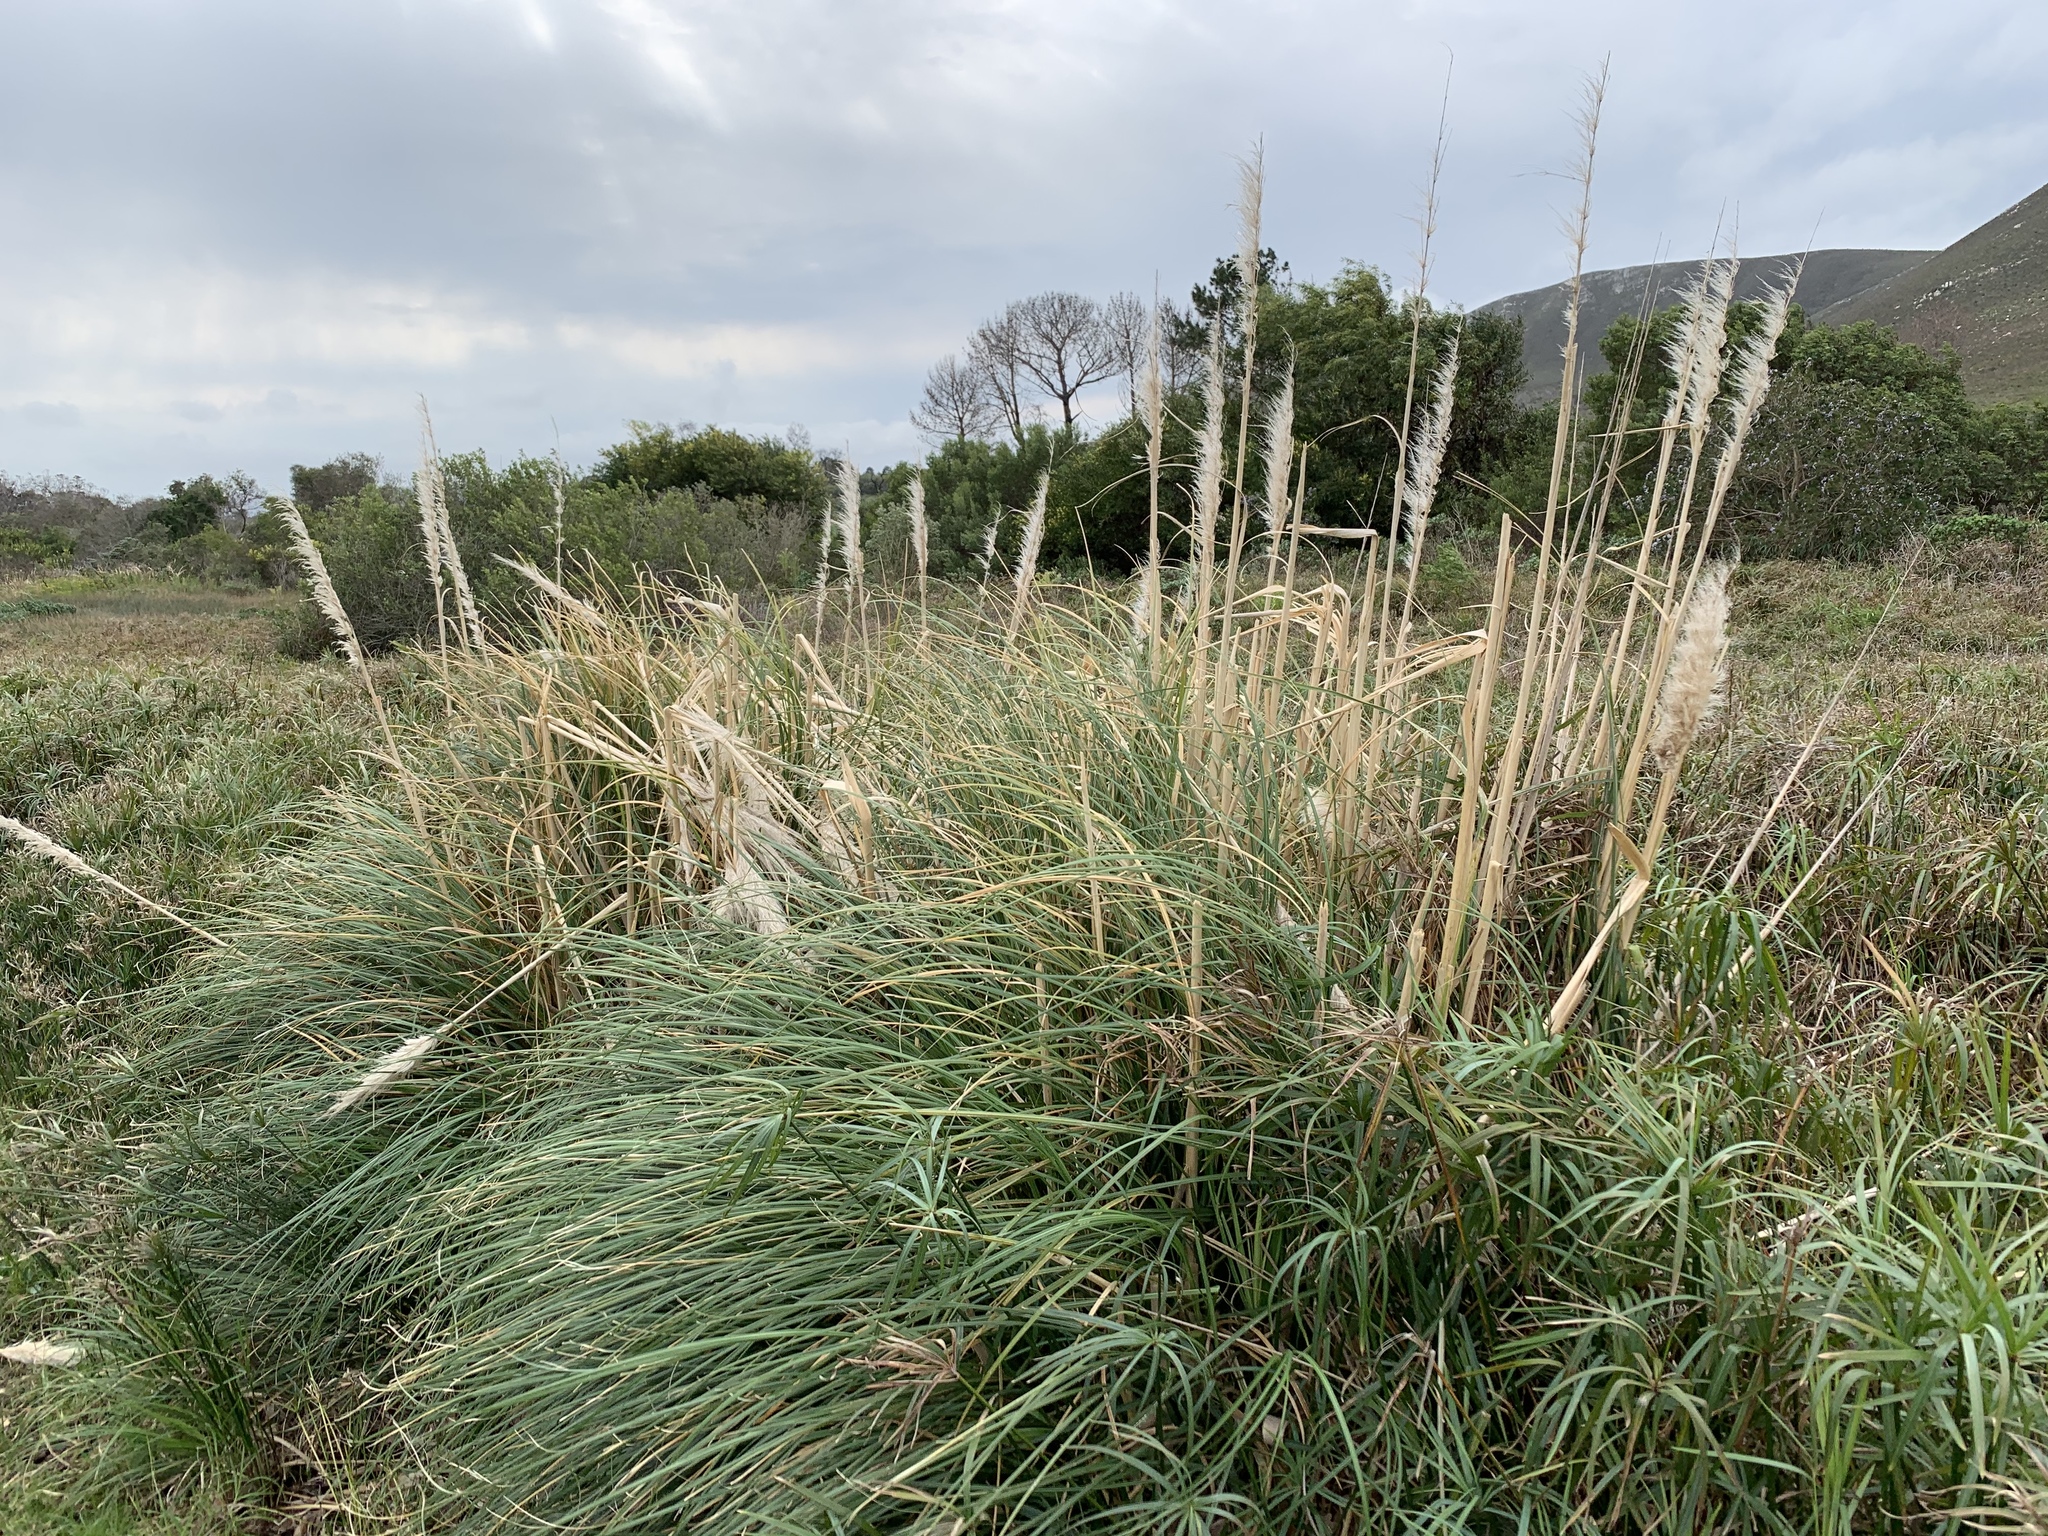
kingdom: Plantae
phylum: Tracheophyta
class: Liliopsida
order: Poales
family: Poaceae
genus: Cortaderia
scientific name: Cortaderia selloana
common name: Uruguayan pampas grass
